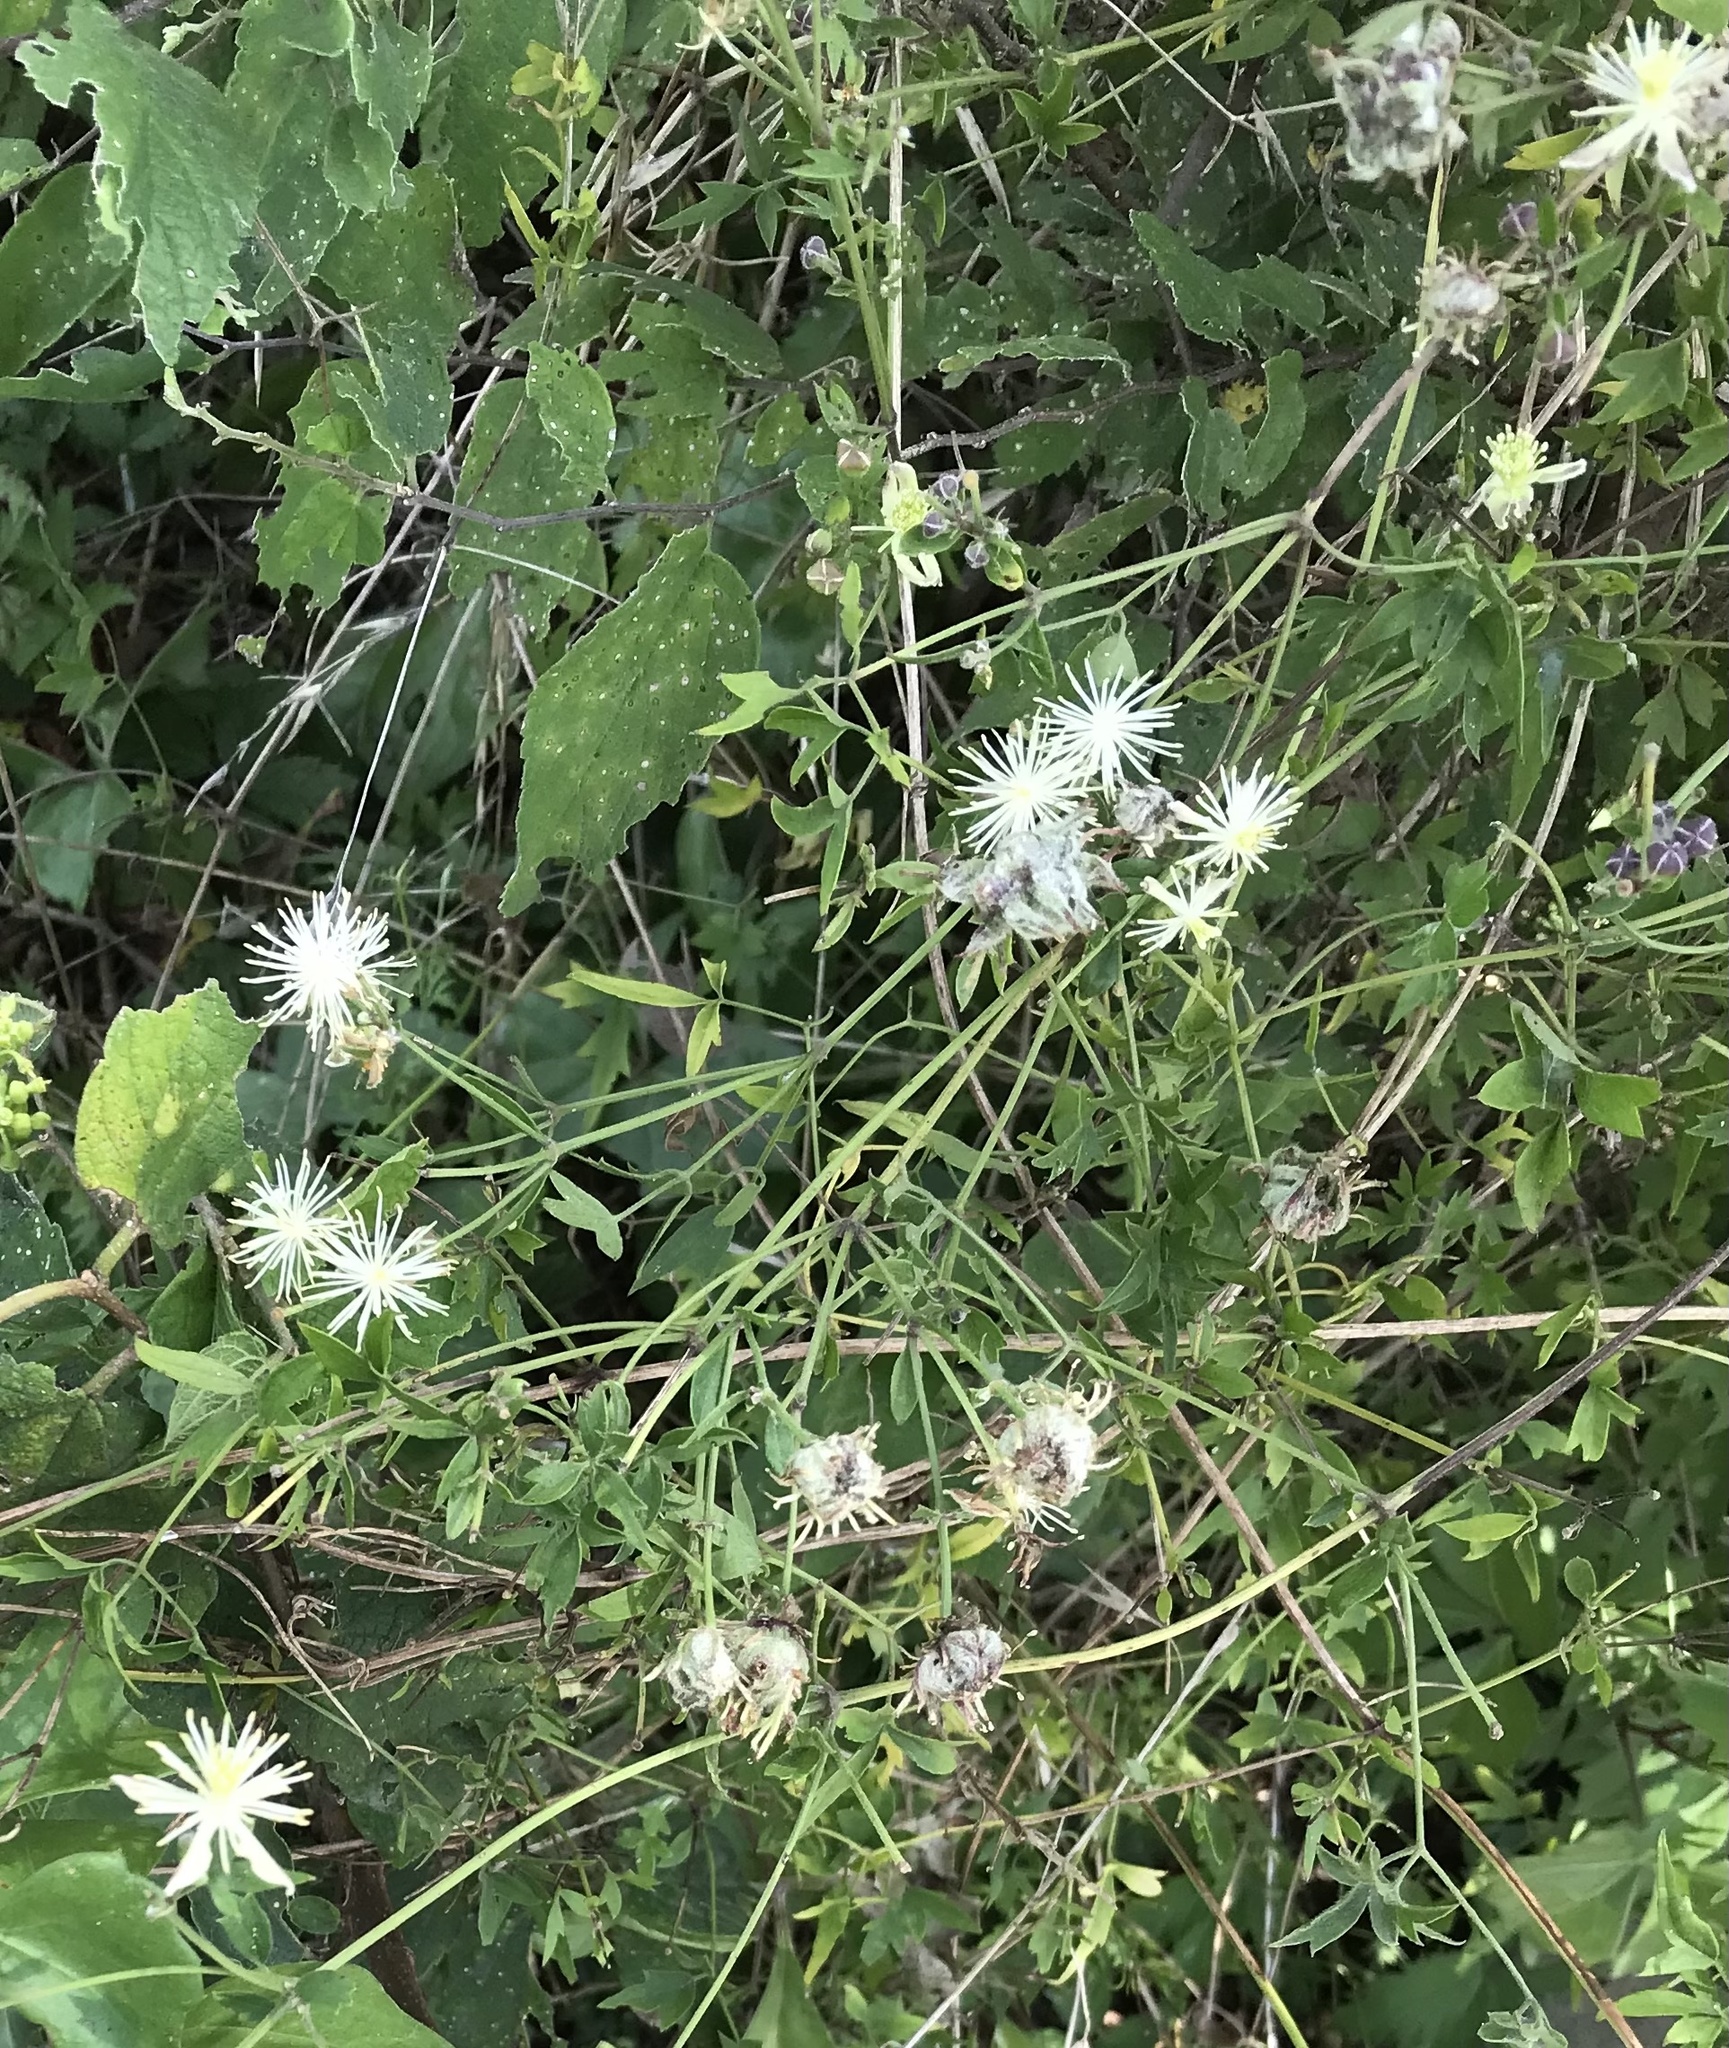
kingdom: Plantae
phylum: Tracheophyta
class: Magnoliopsida
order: Ranunculales
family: Ranunculaceae
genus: Clematis
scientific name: Clematis drummondii
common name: Texas virgin's bower
